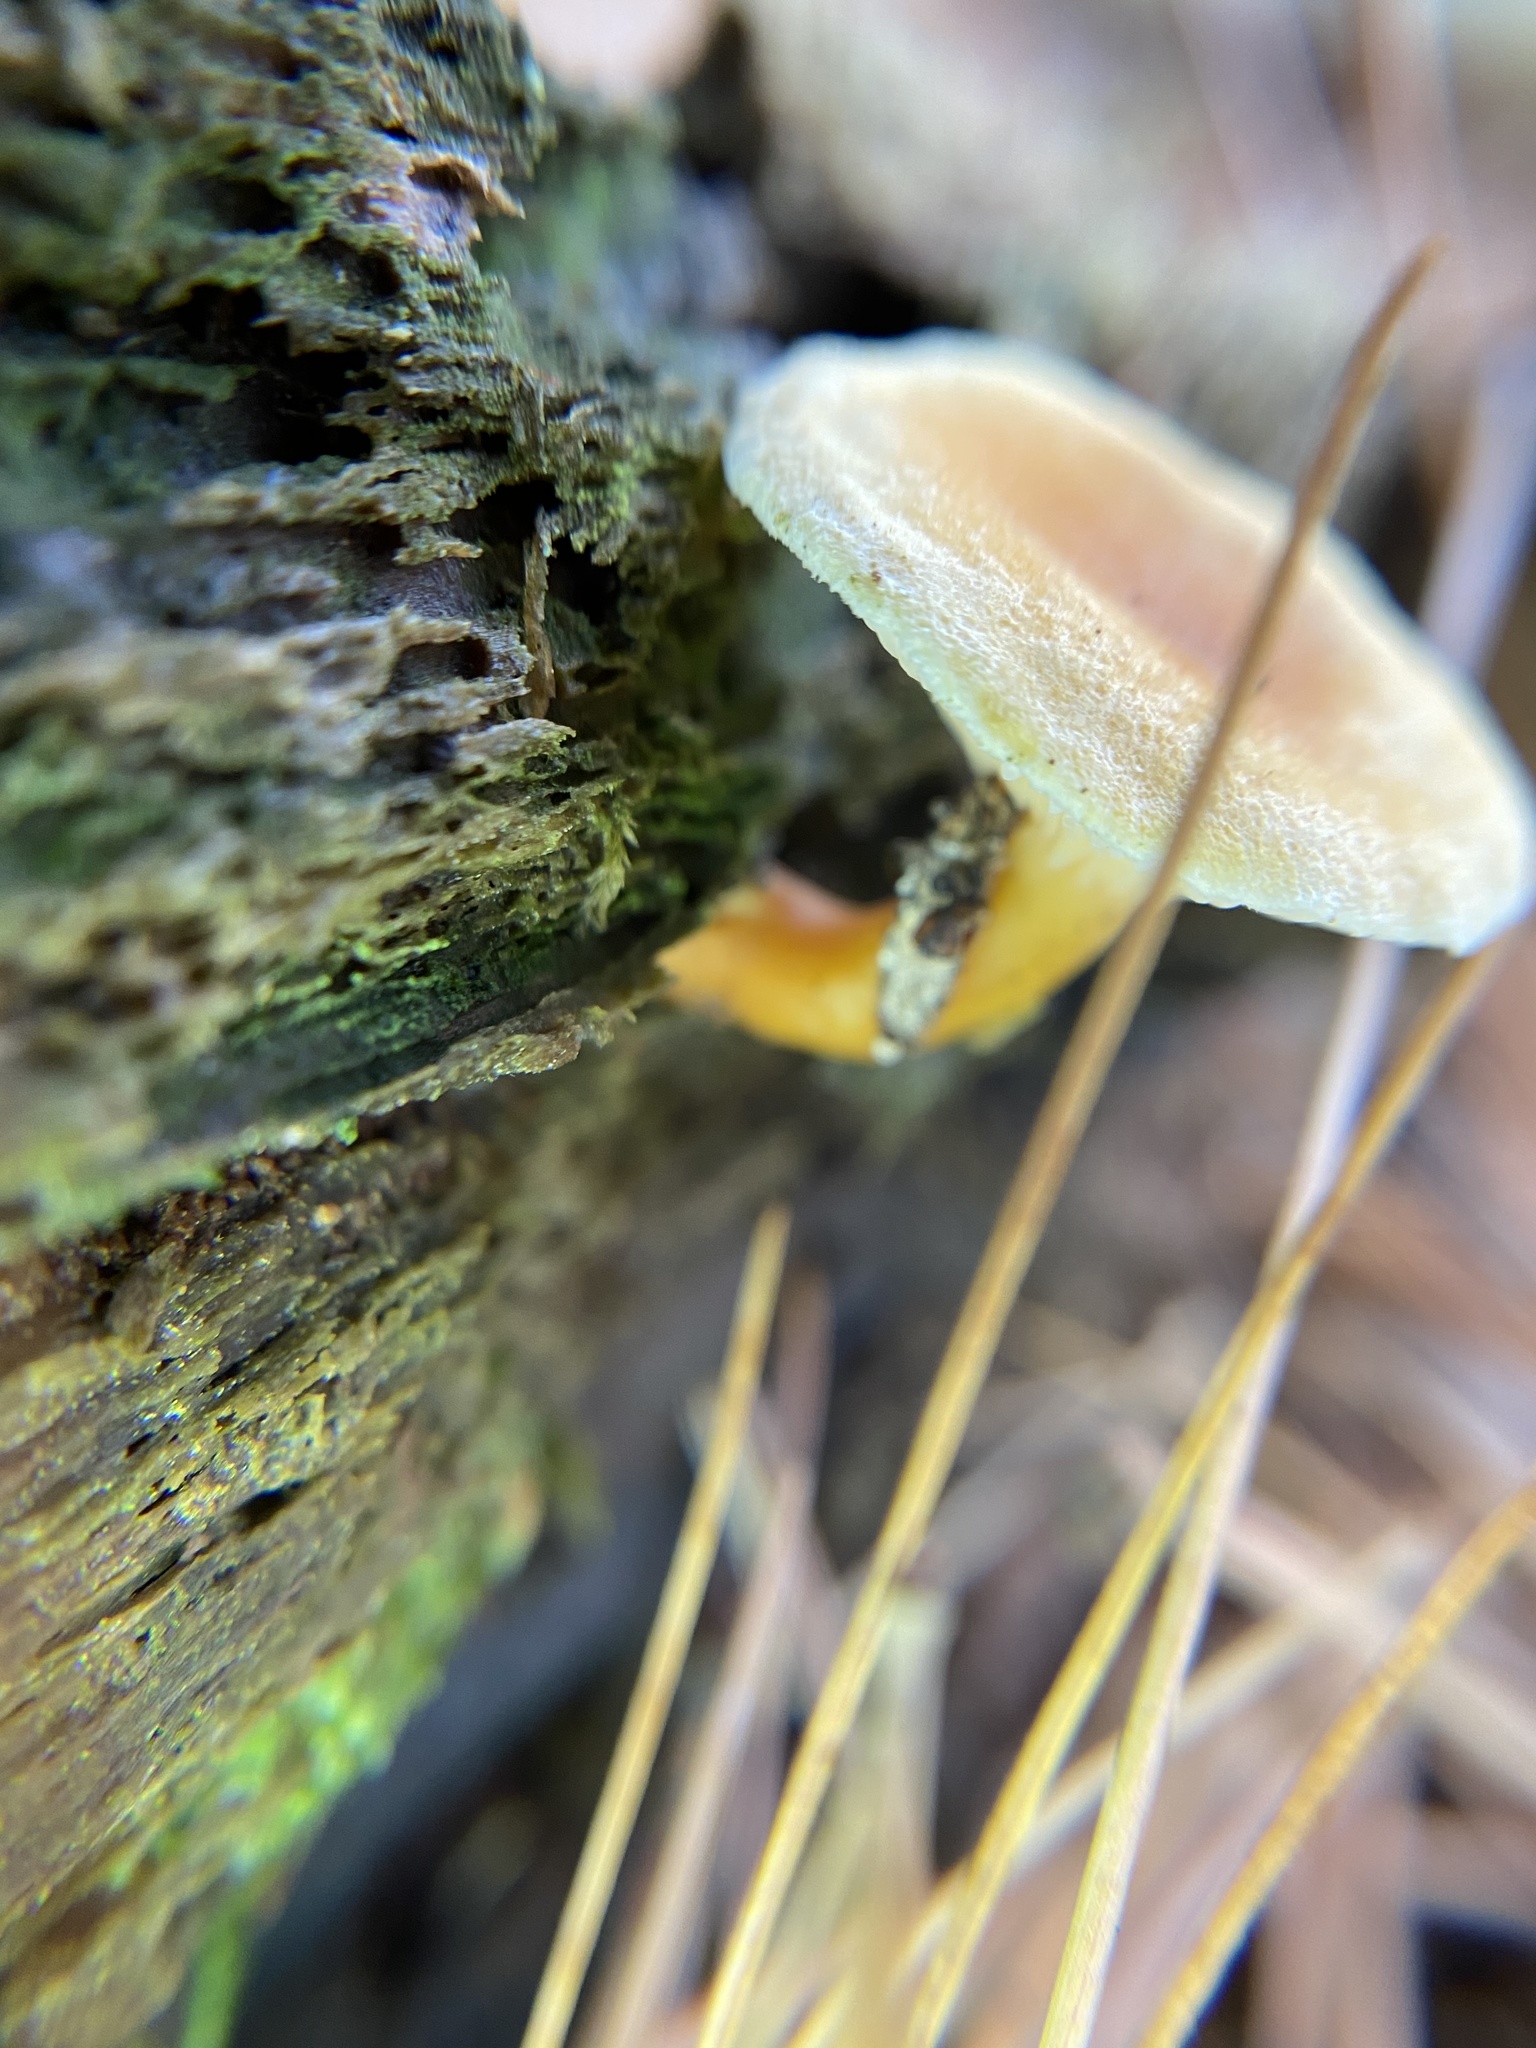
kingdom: Fungi
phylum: Basidiomycota
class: Agaricomycetes
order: Boletales
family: Hygrophoropsidaceae
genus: Hygrophoropsis
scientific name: Hygrophoropsis aurantiaca
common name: False chanterelle
